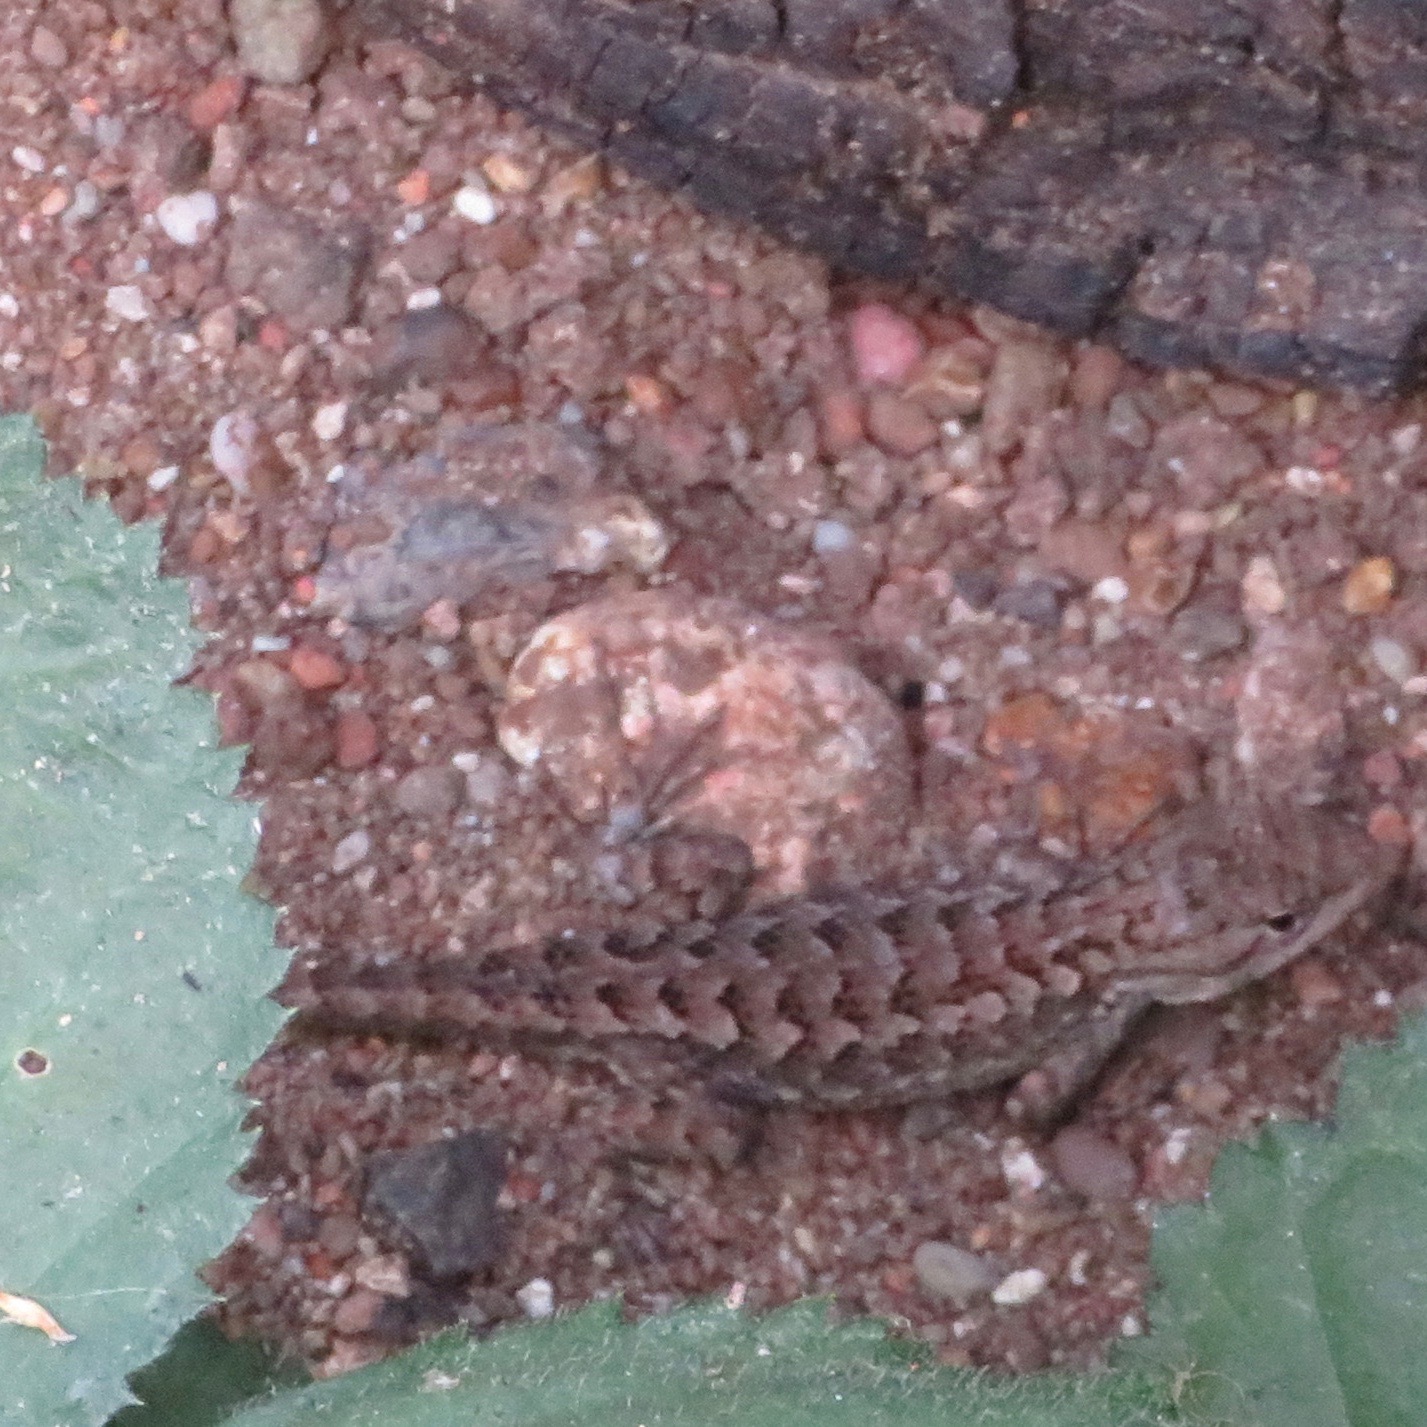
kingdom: Animalia
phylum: Chordata
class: Squamata
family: Phrynosomatidae
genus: Sceloporus
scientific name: Sceloporus occidentalis
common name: Western fence lizard
